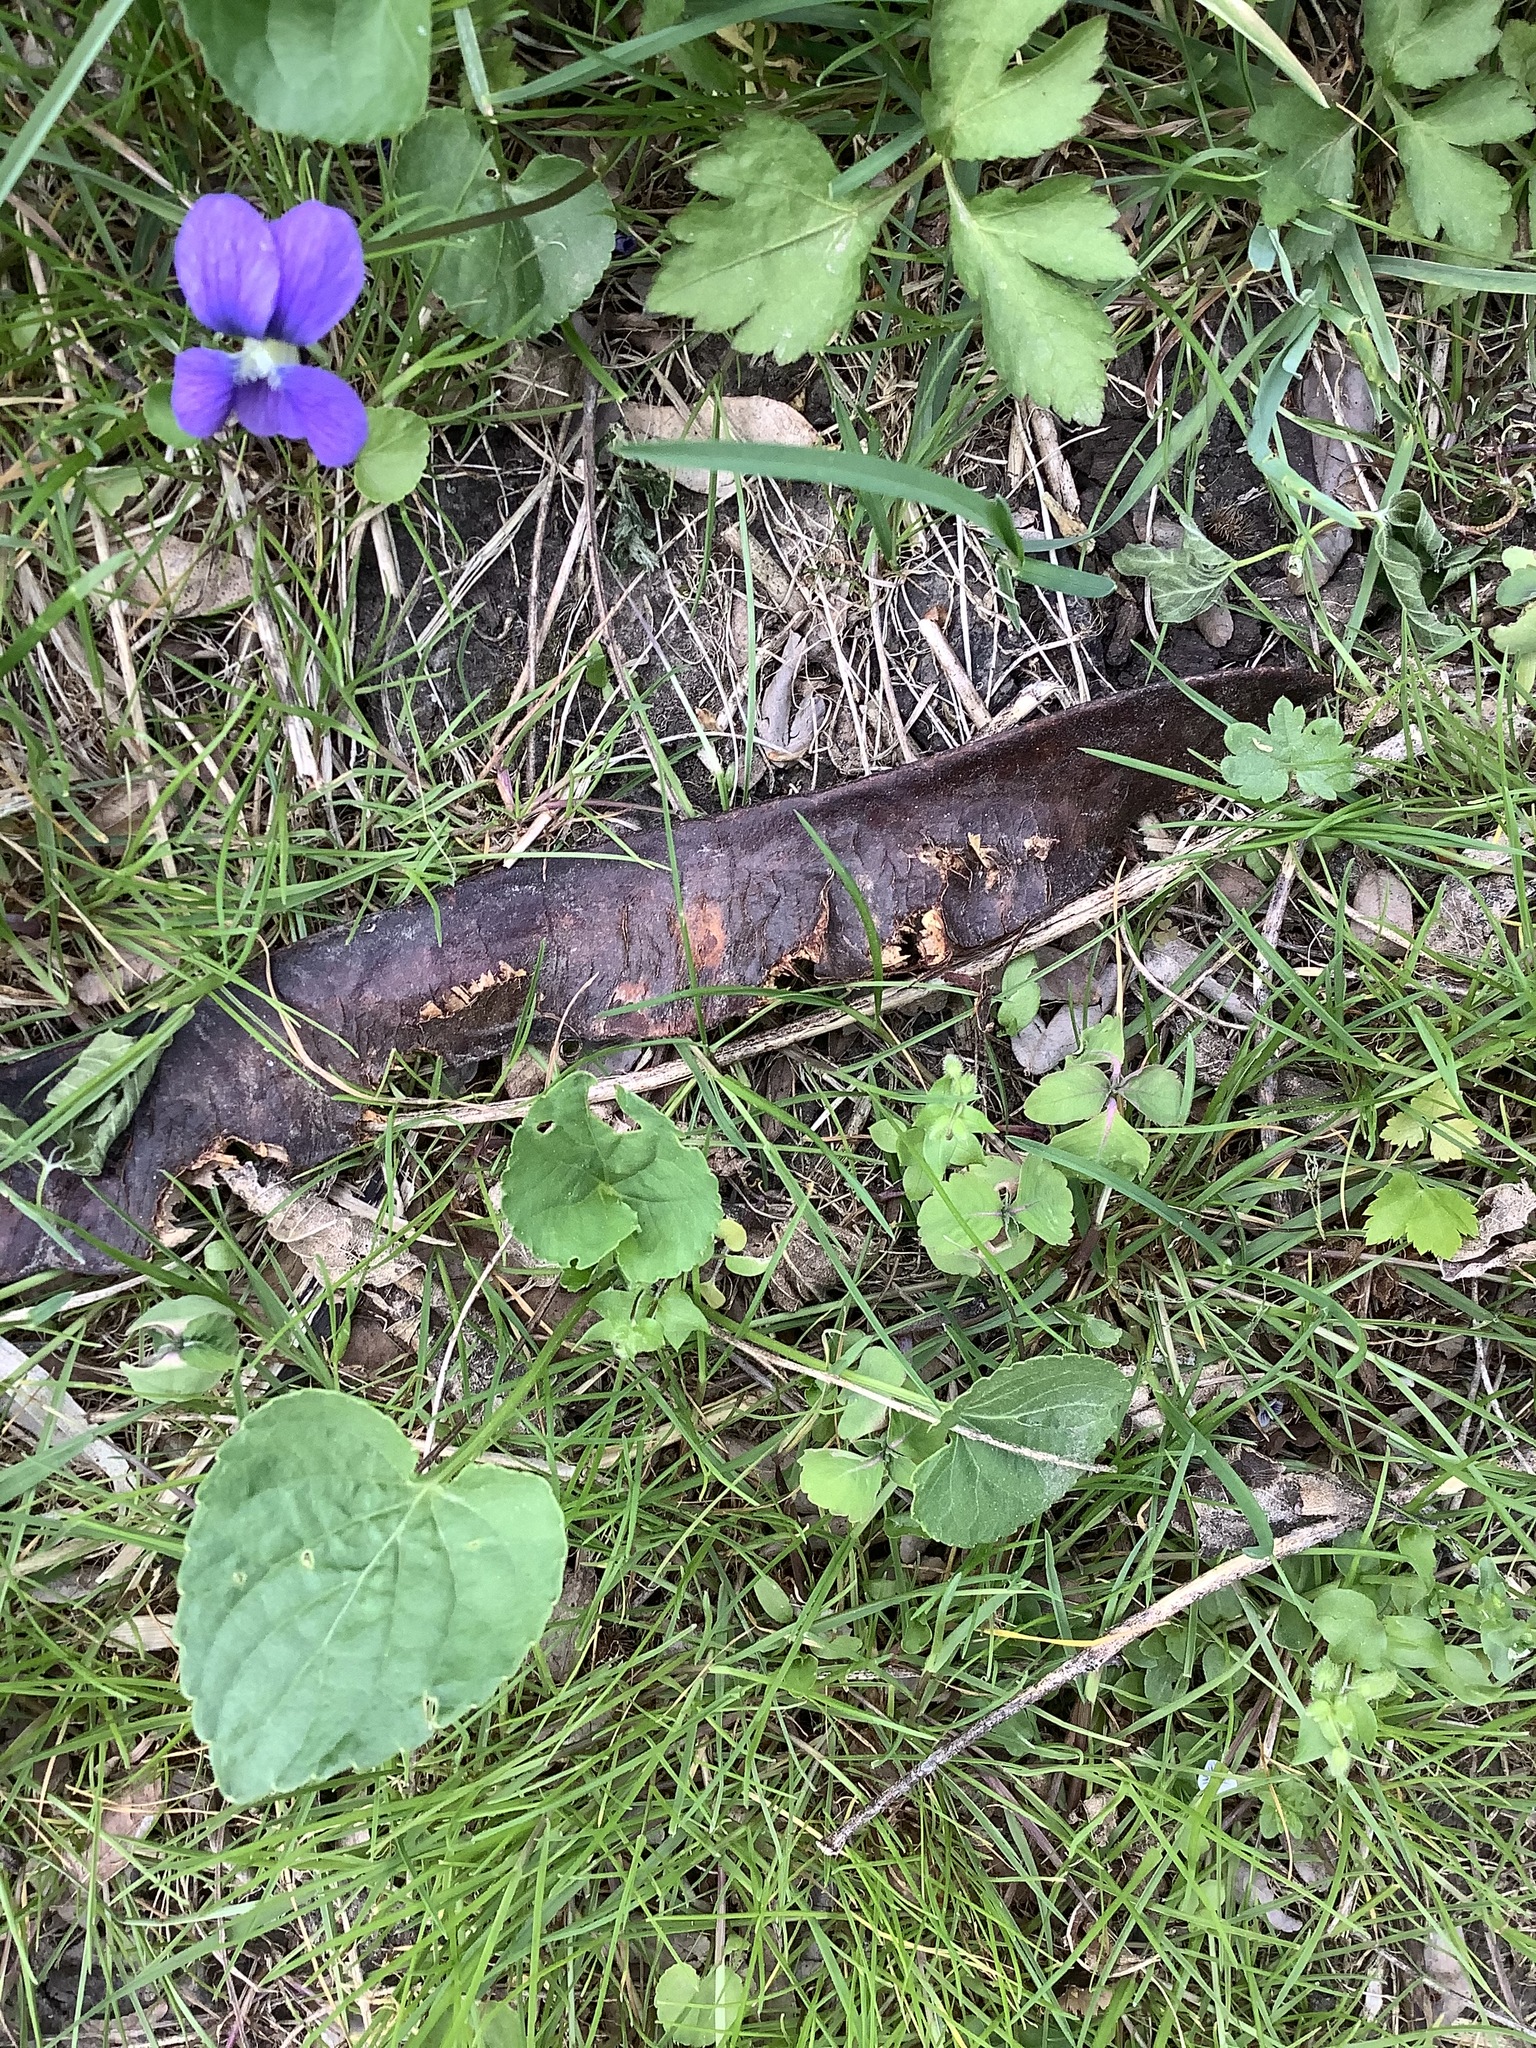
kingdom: Plantae
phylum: Tracheophyta
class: Magnoliopsida
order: Fabales
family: Fabaceae
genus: Gleditsia
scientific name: Gleditsia triacanthos
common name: Common honeylocust
